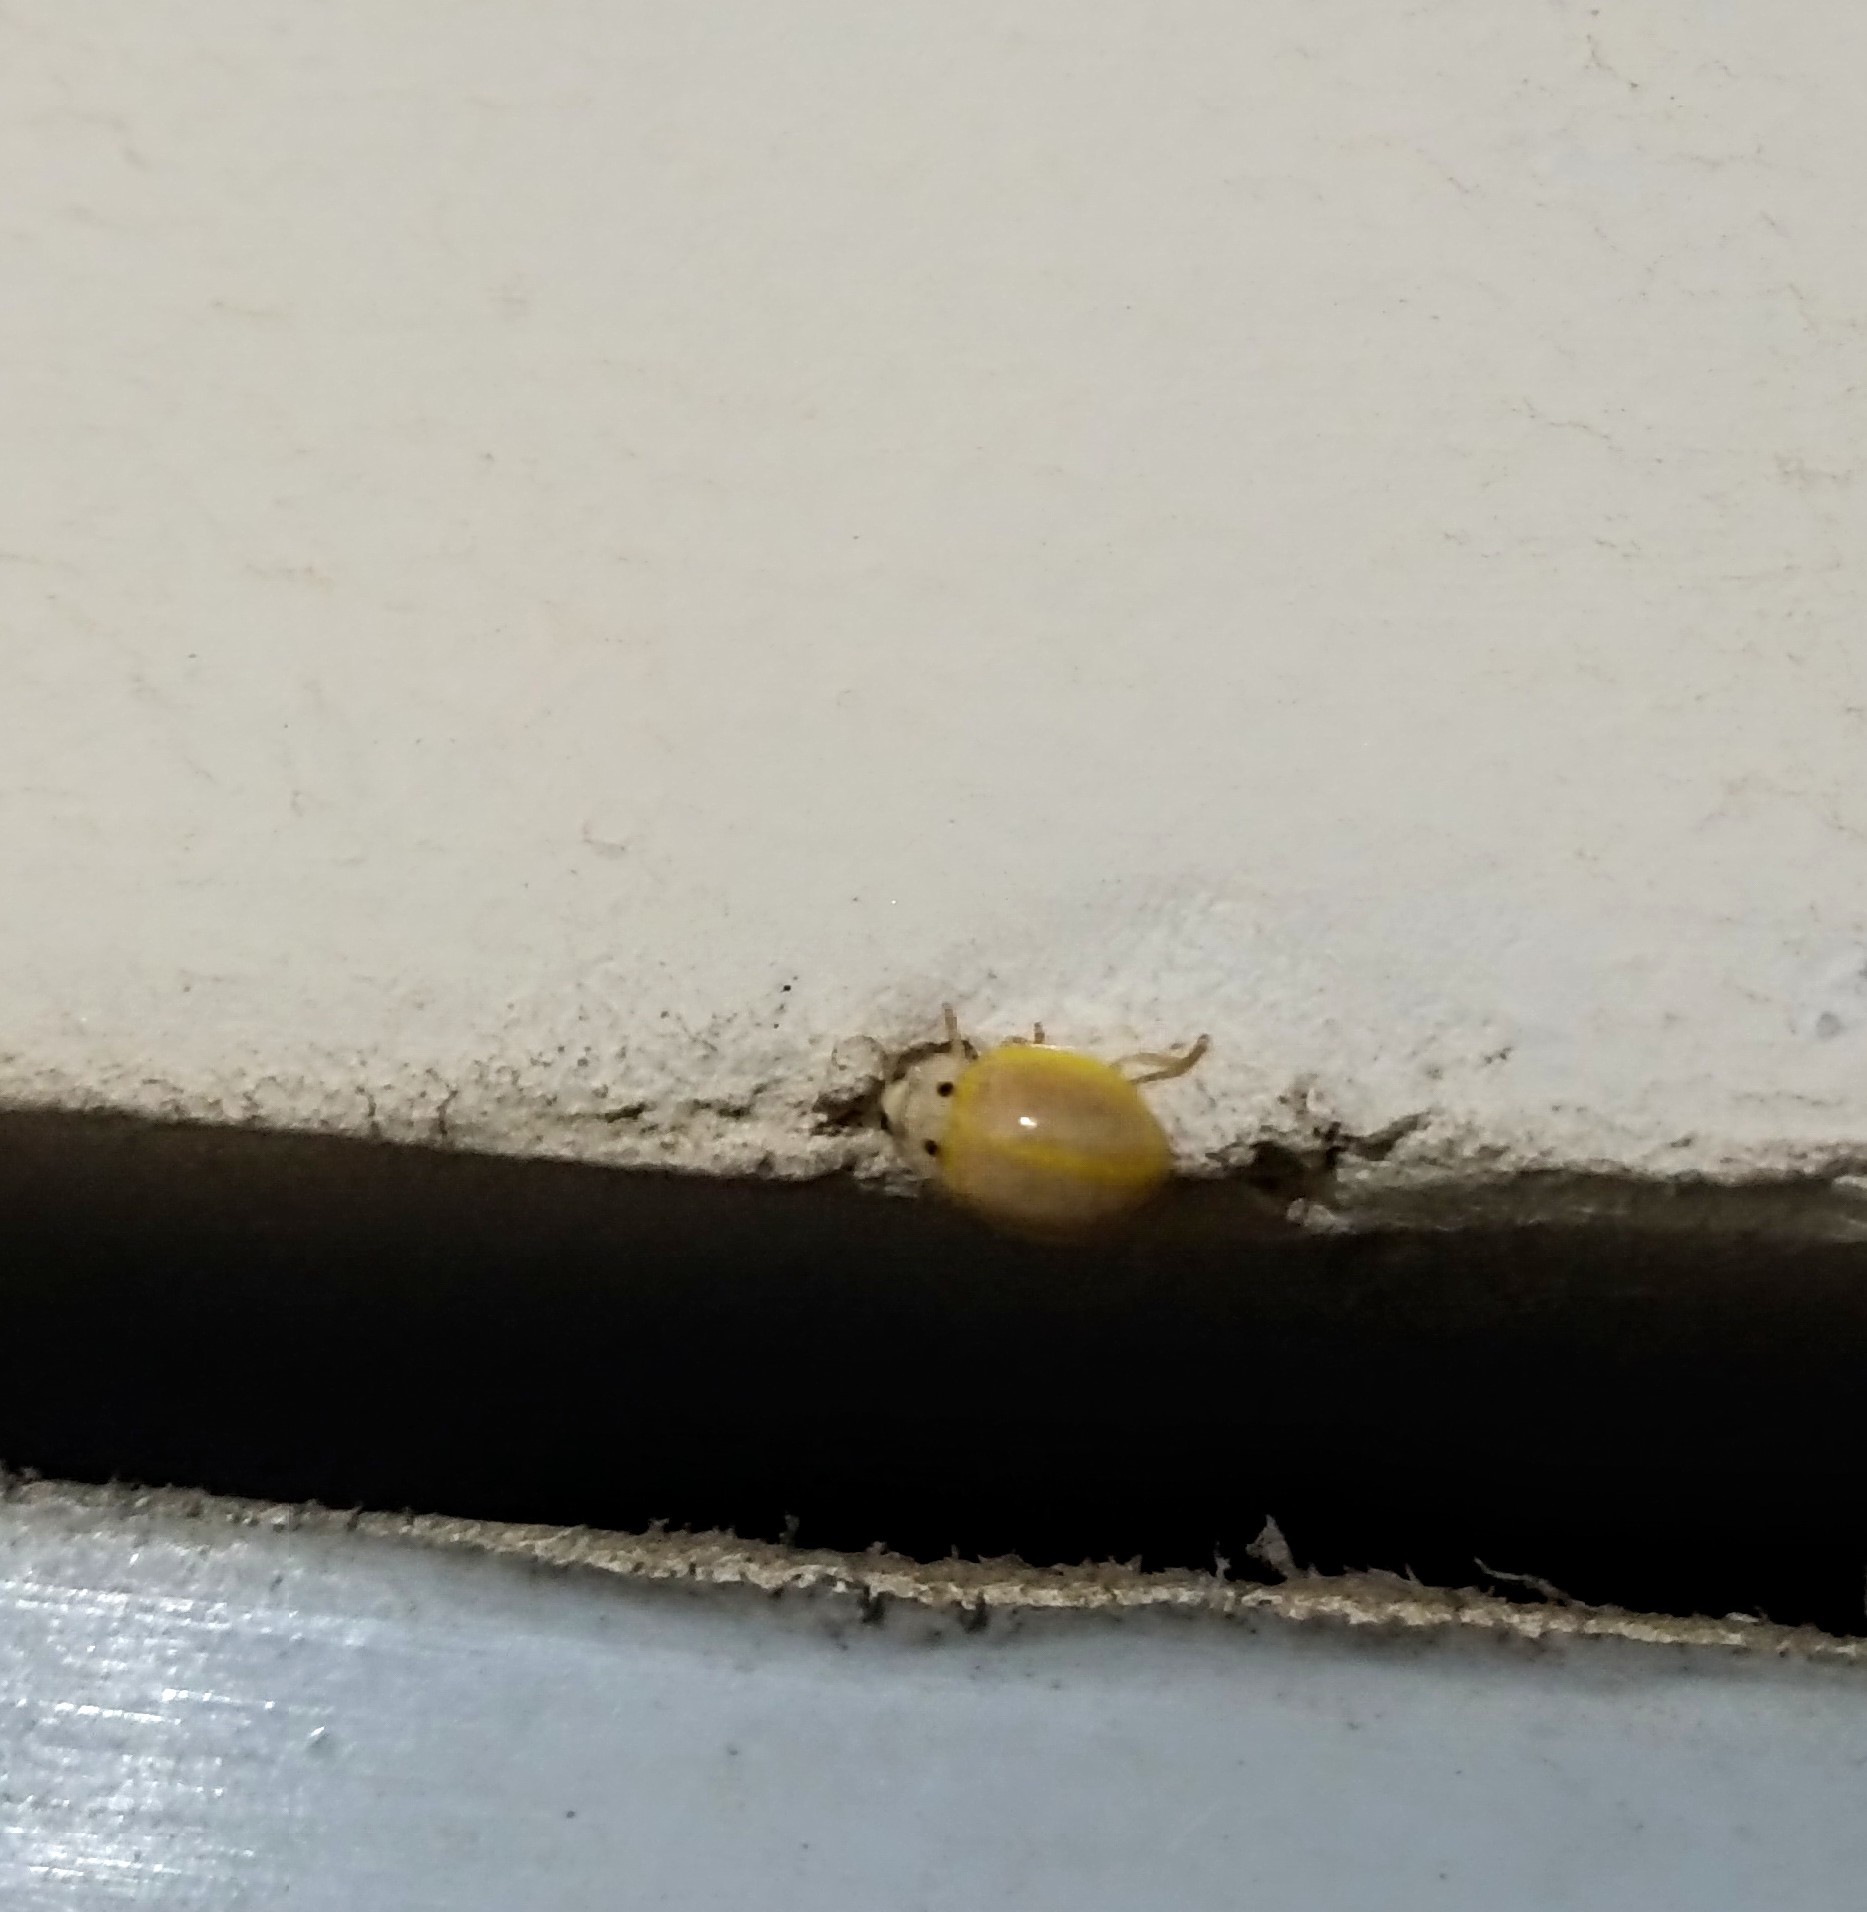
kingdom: Animalia
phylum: Arthropoda
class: Insecta
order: Coleoptera
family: Coccinellidae
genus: Illeis
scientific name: Illeis cincta
